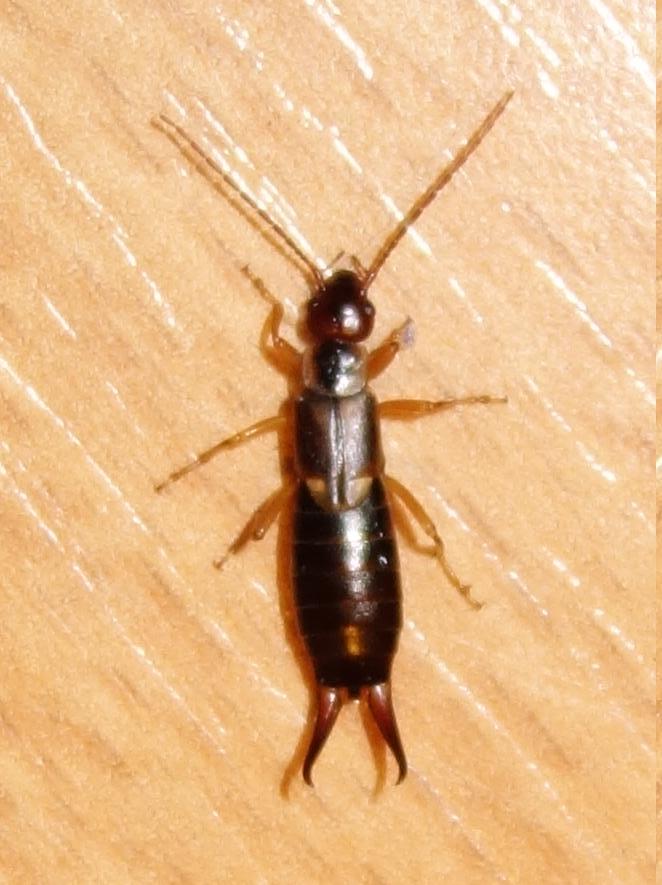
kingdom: Animalia
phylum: Arthropoda
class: Insecta
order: Dermaptera
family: Forficulidae
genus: Forficula
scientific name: Forficula
